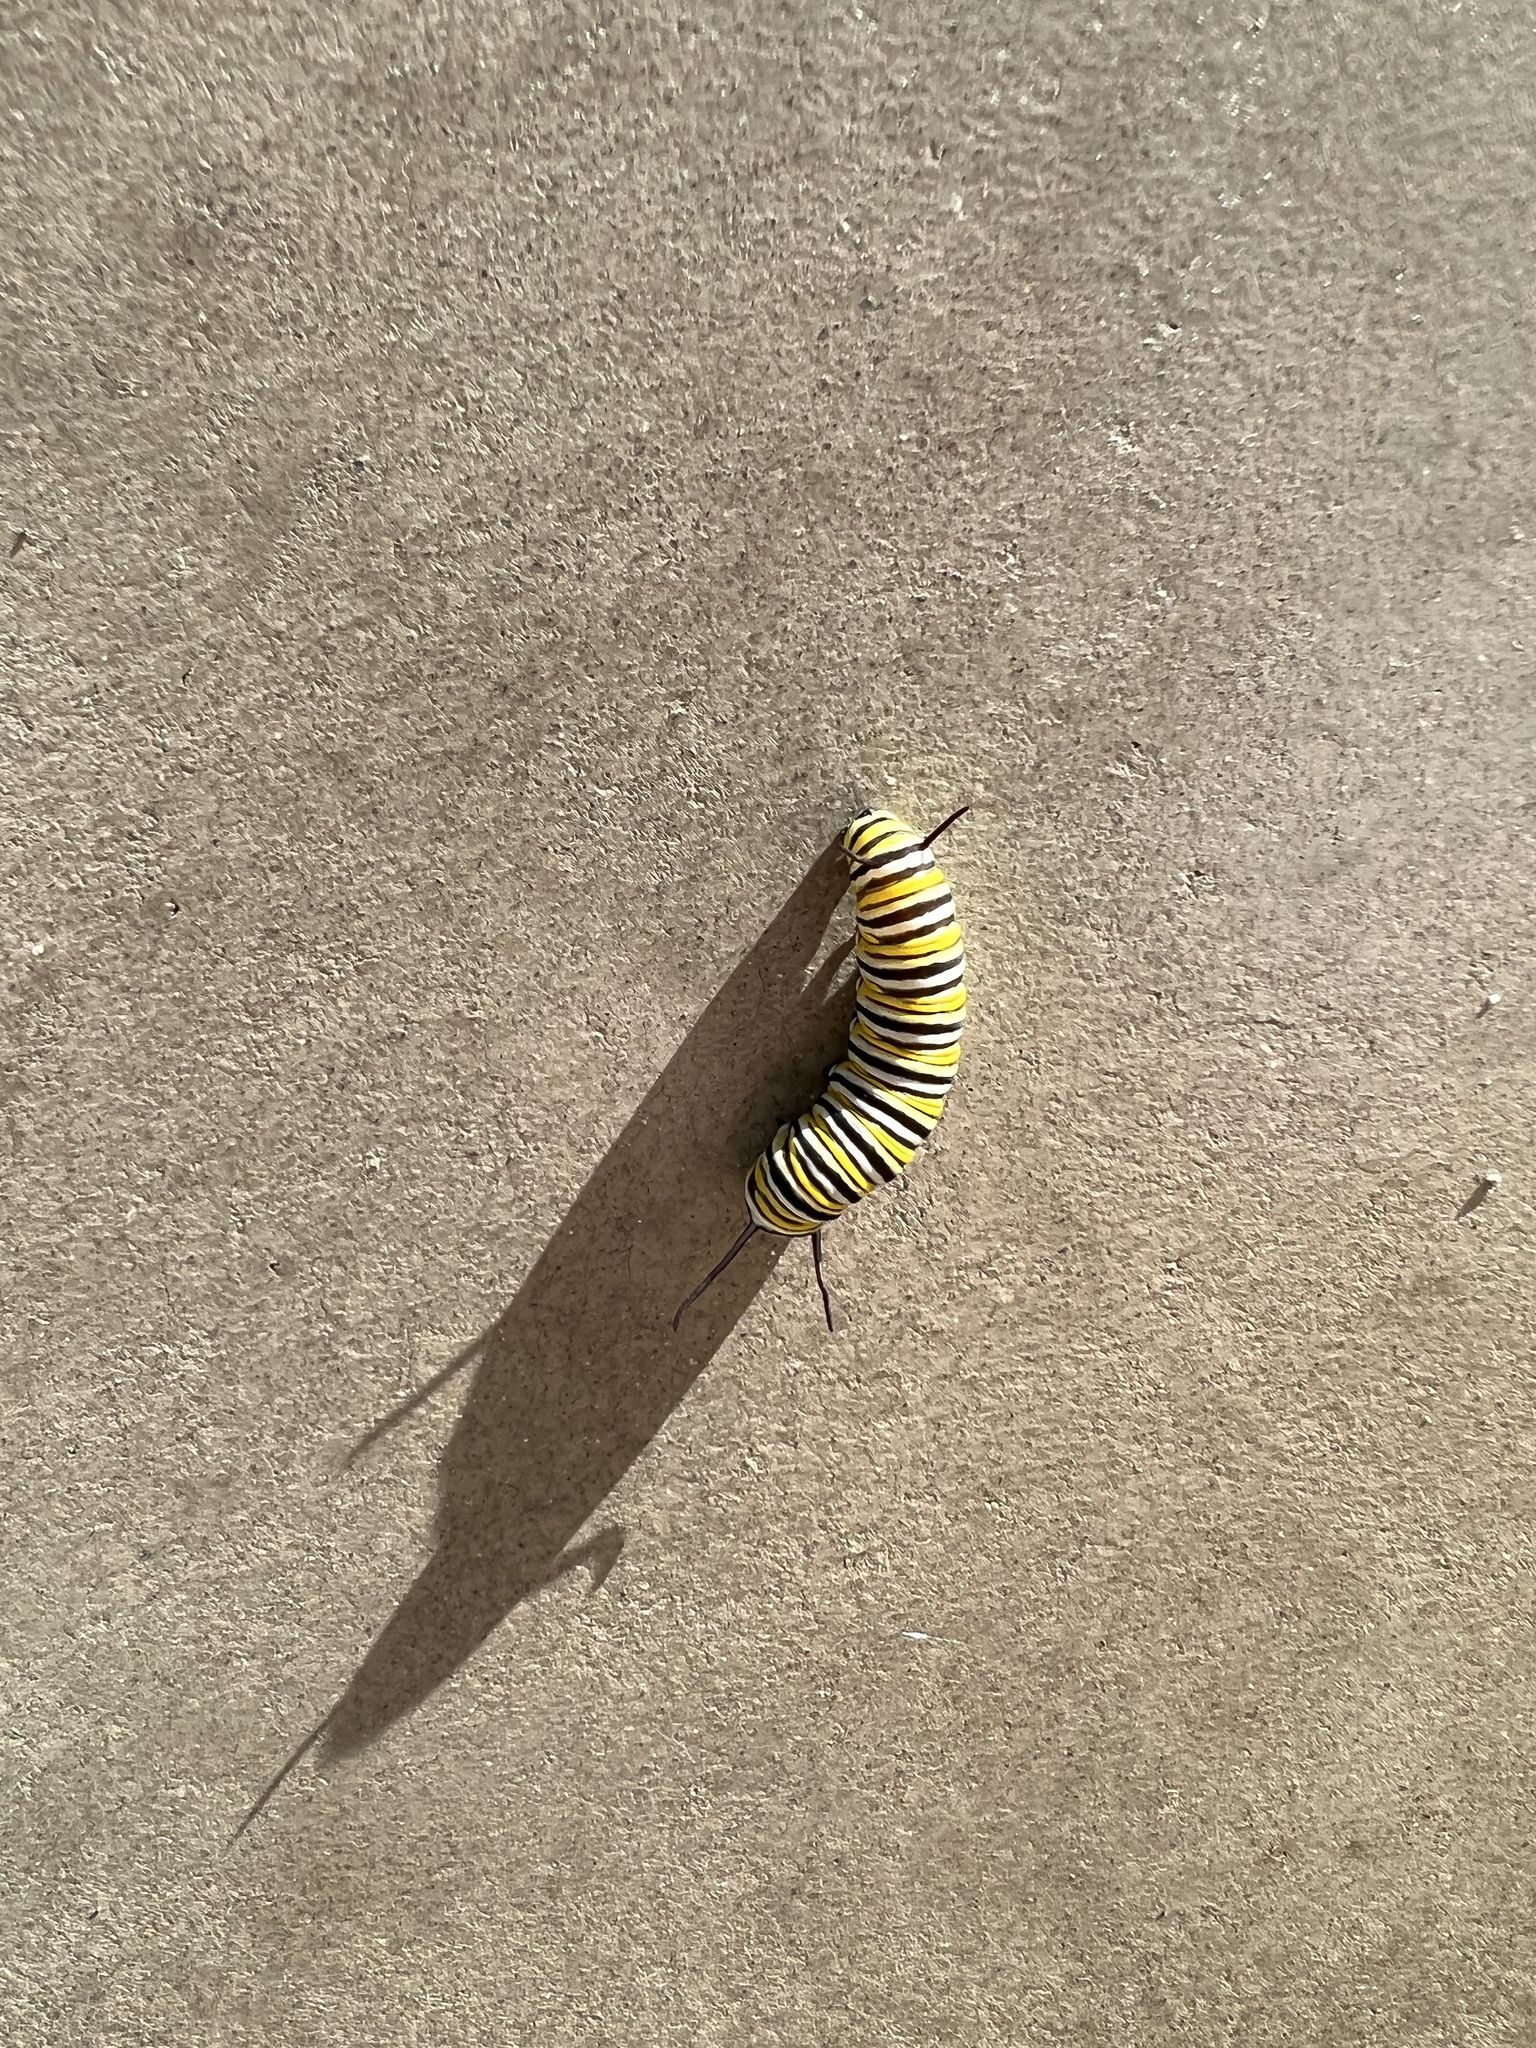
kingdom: Animalia
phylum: Arthropoda
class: Insecta
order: Lepidoptera
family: Nymphalidae
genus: Danaus
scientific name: Danaus plexippus
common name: Monarch
